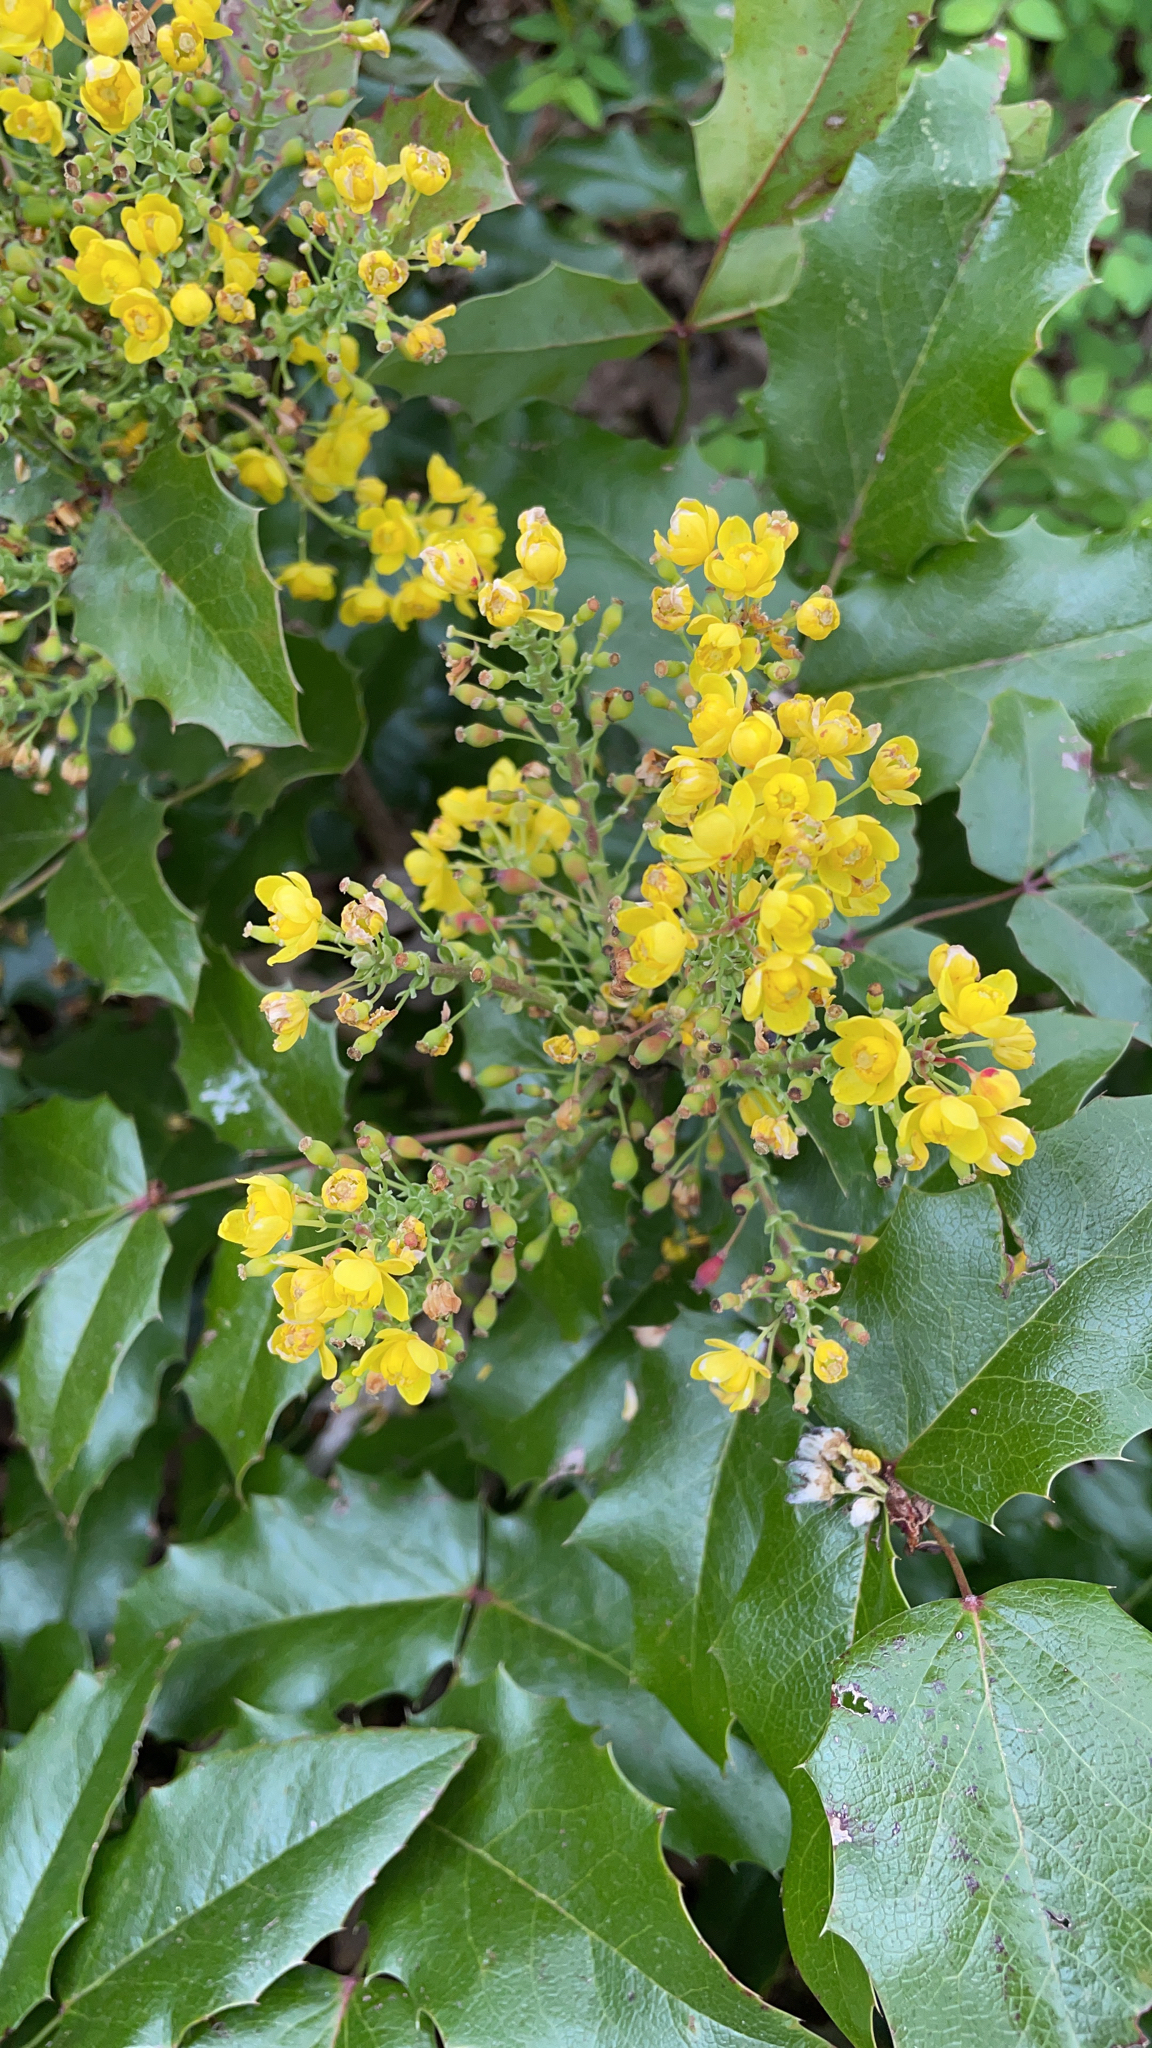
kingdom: Plantae
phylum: Tracheophyta
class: Magnoliopsida
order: Ranunculales
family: Berberidaceae
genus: Mahonia
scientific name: Mahonia aquifolium
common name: Oregon-grape
